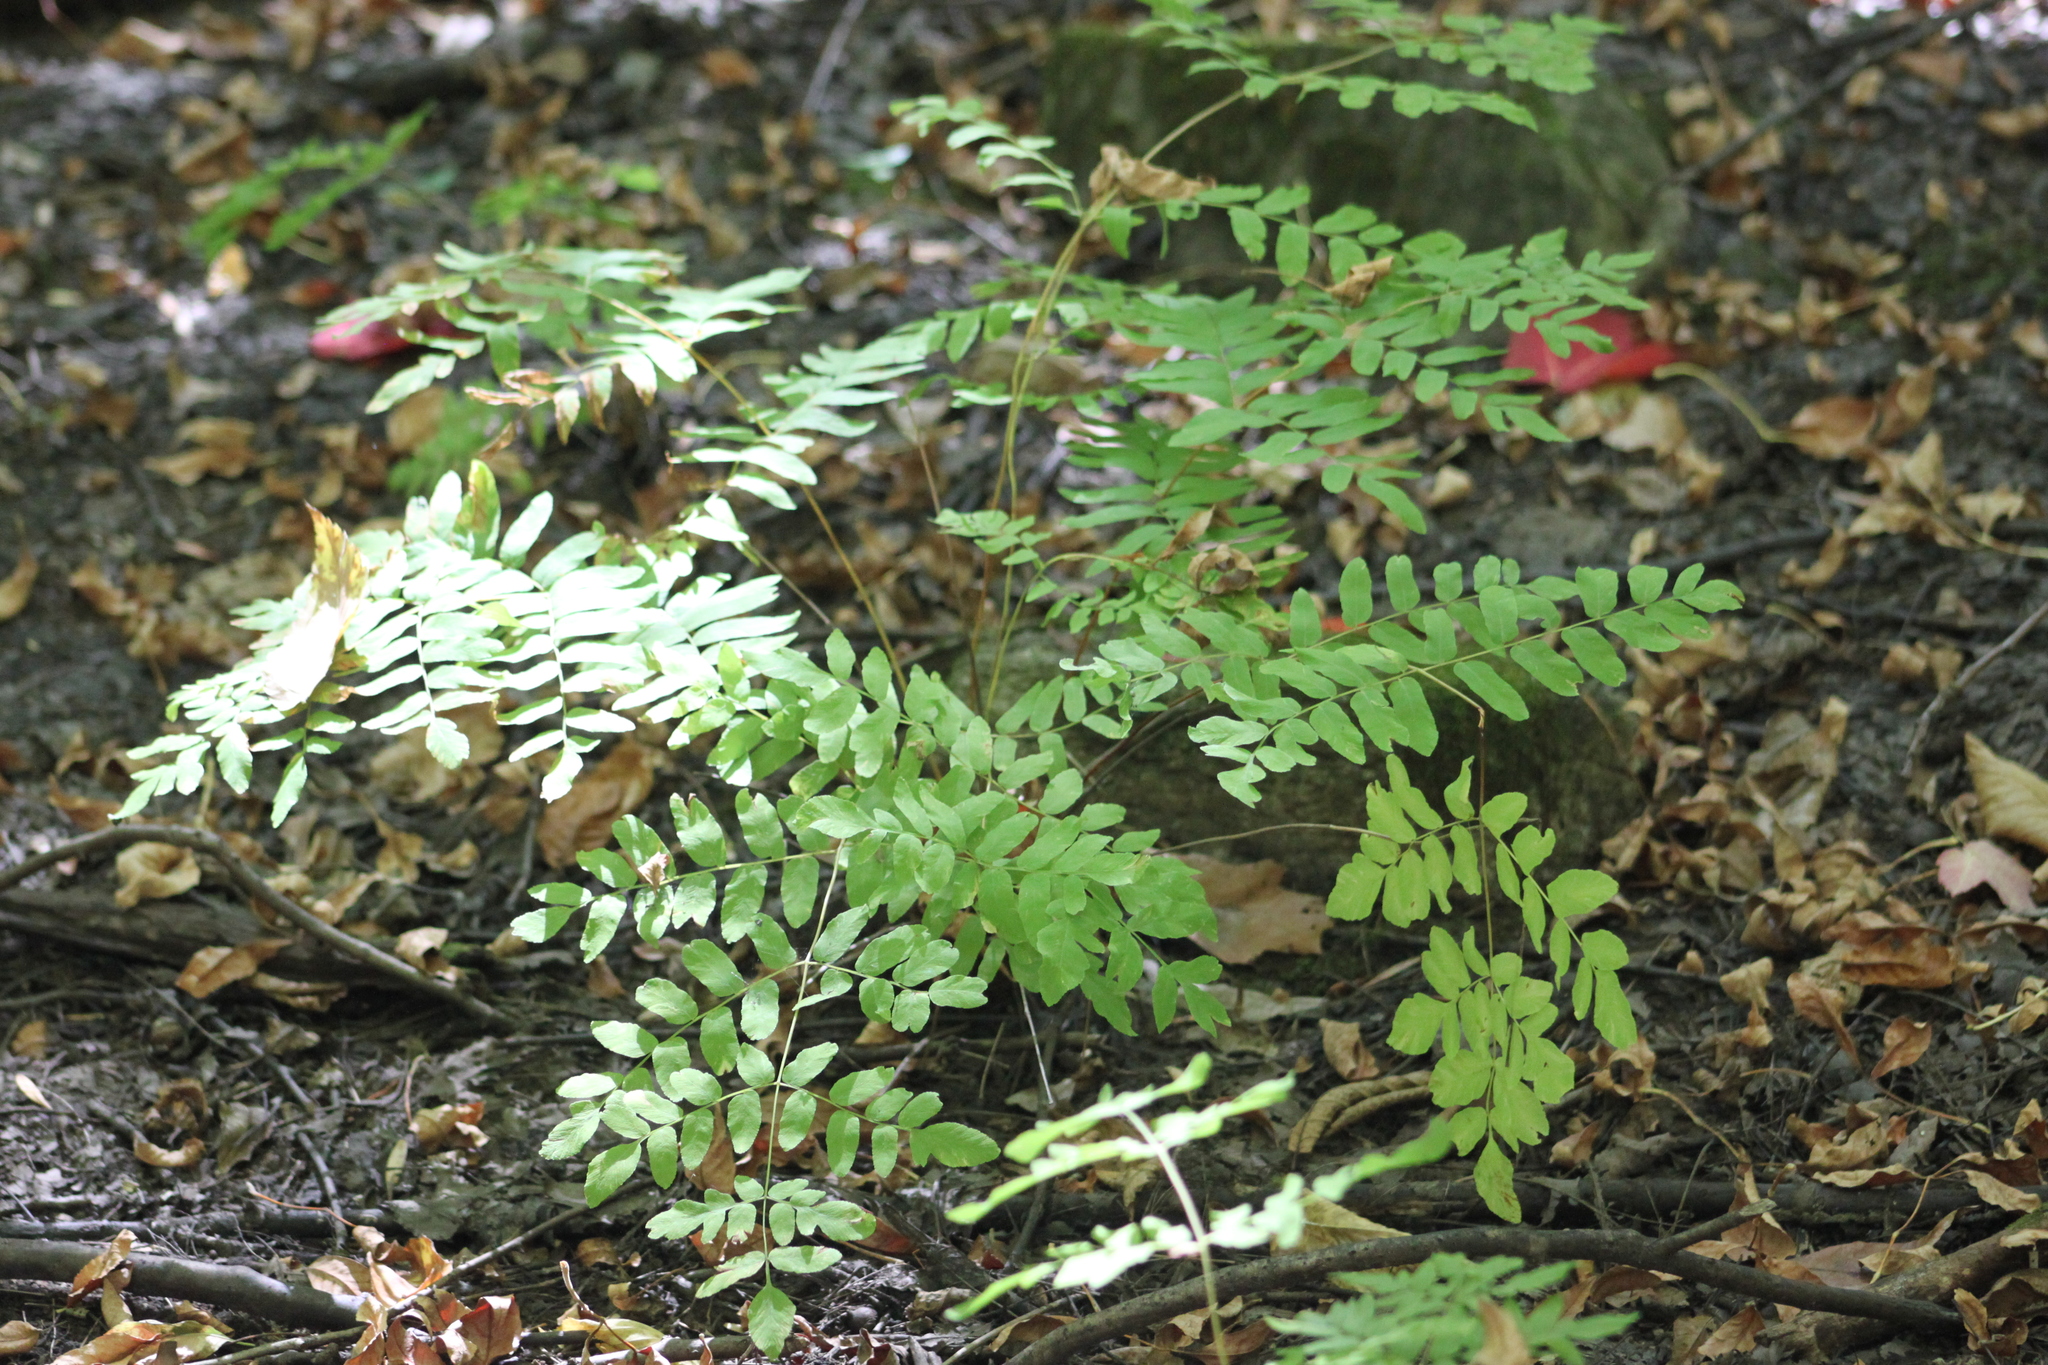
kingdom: Plantae
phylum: Tracheophyta
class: Polypodiopsida
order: Osmundales
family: Osmundaceae
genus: Osmunda
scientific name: Osmunda spectabilis
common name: American royal fern
